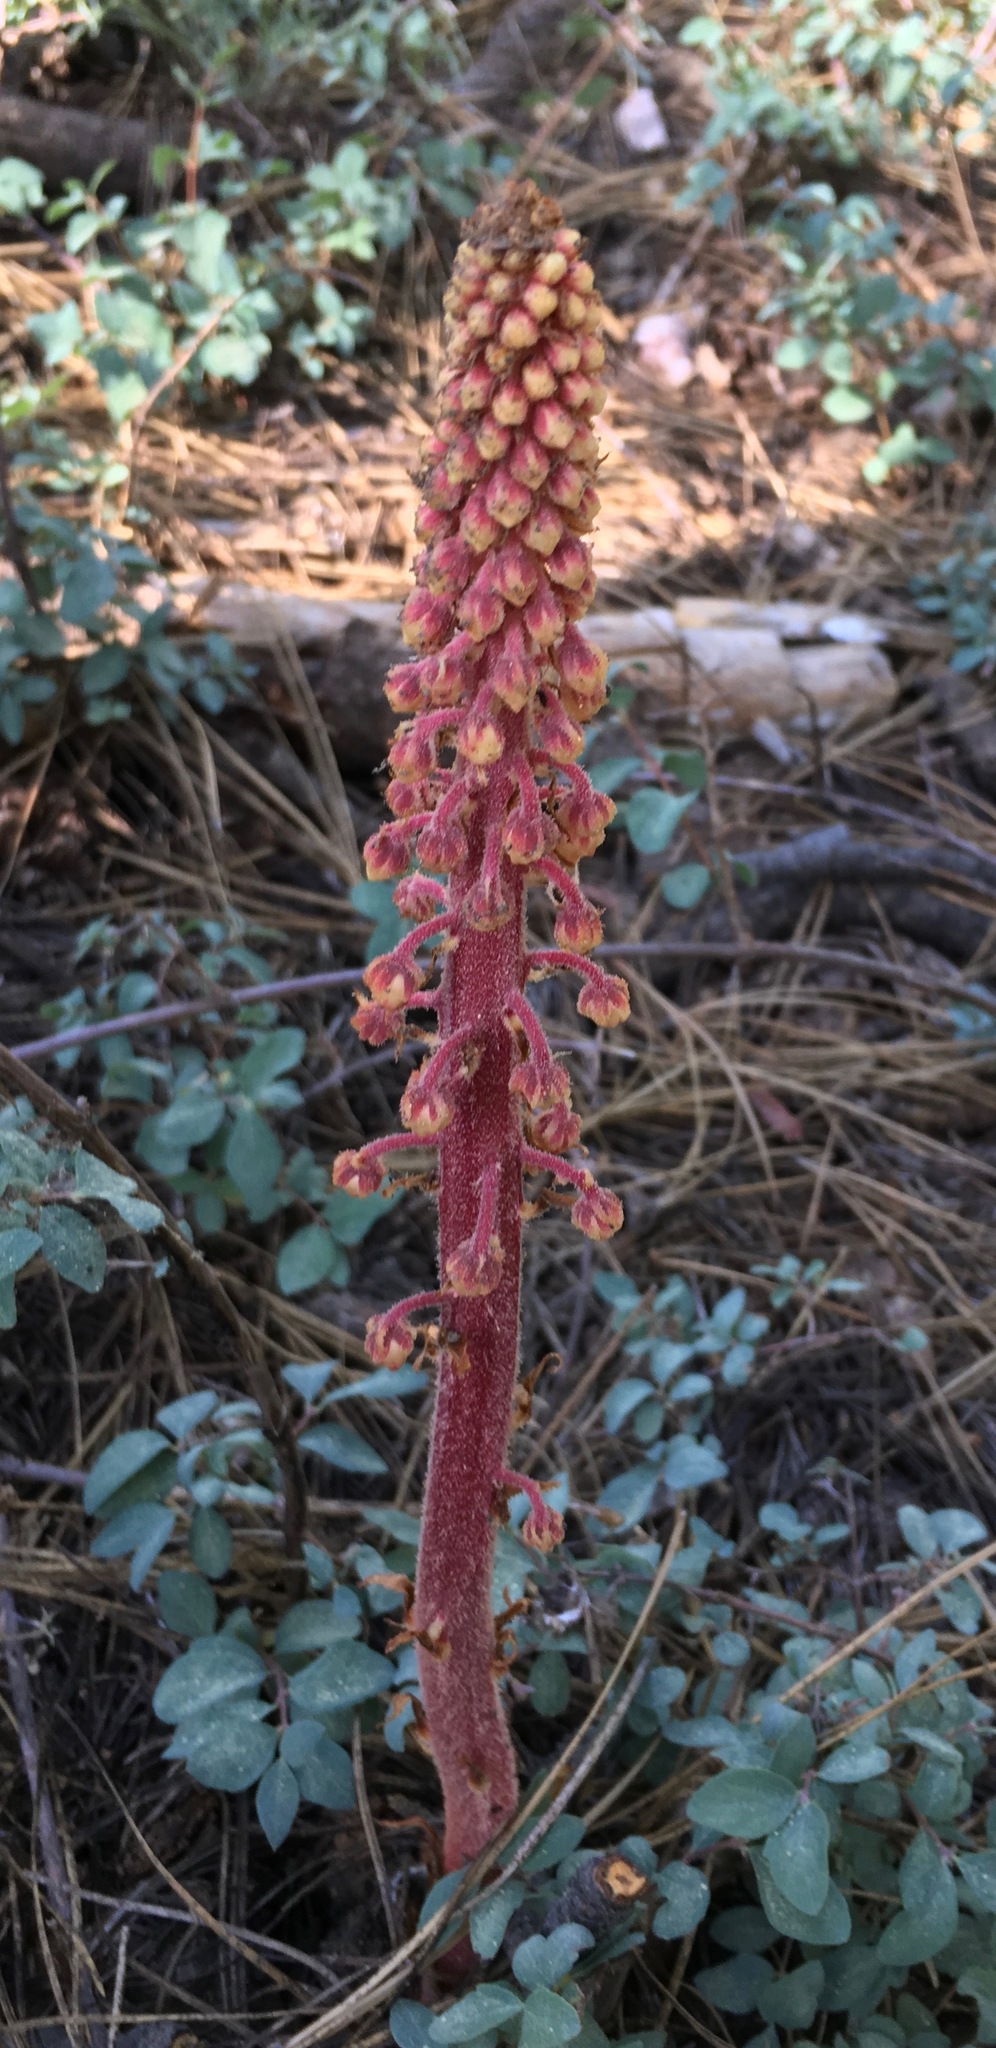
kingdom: Plantae
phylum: Tracheophyta
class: Magnoliopsida
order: Ericales
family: Ericaceae
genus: Pterospora
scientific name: Pterospora andromedea
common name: Giant bird's-nest
